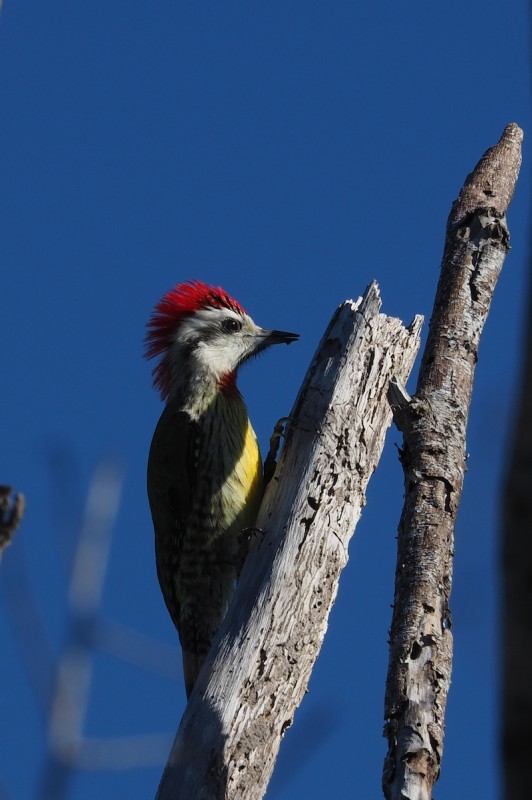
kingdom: Animalia
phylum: Chordata
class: Aves
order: Piciformes
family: Picidae
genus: Xiphidiopicus
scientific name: Xiphidiopicus percussus
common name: Cuban green woodpecker
